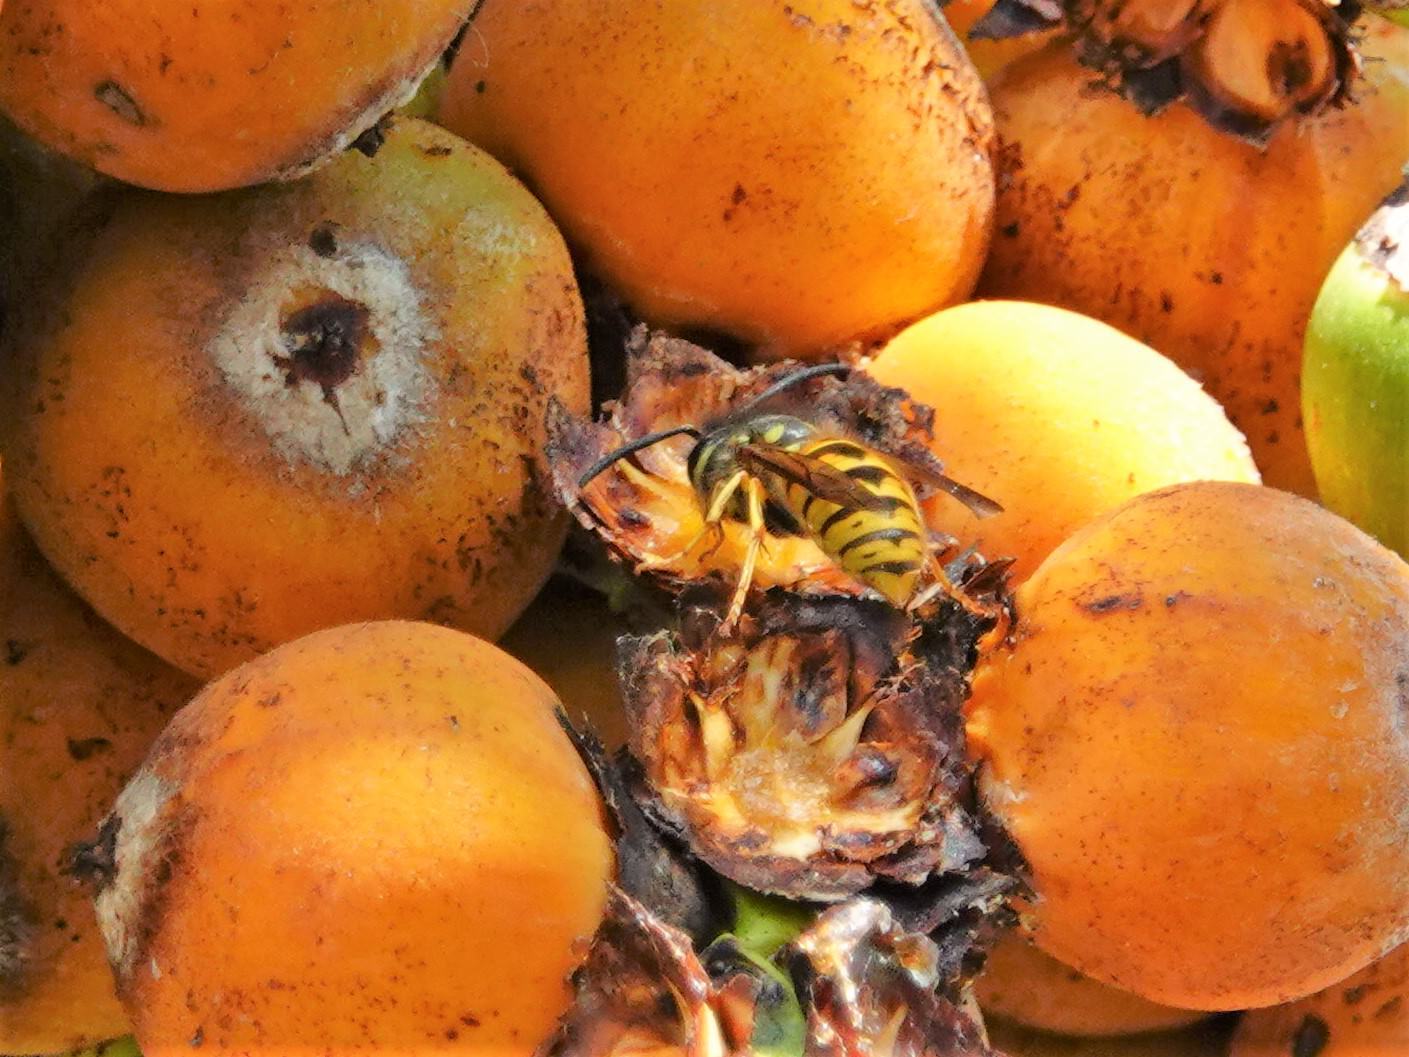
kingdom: Animalia
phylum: Arthropoda
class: Insecta
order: Hymenoptera
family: Vespidae
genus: Vespula
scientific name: Vespula germanica
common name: German wasp
